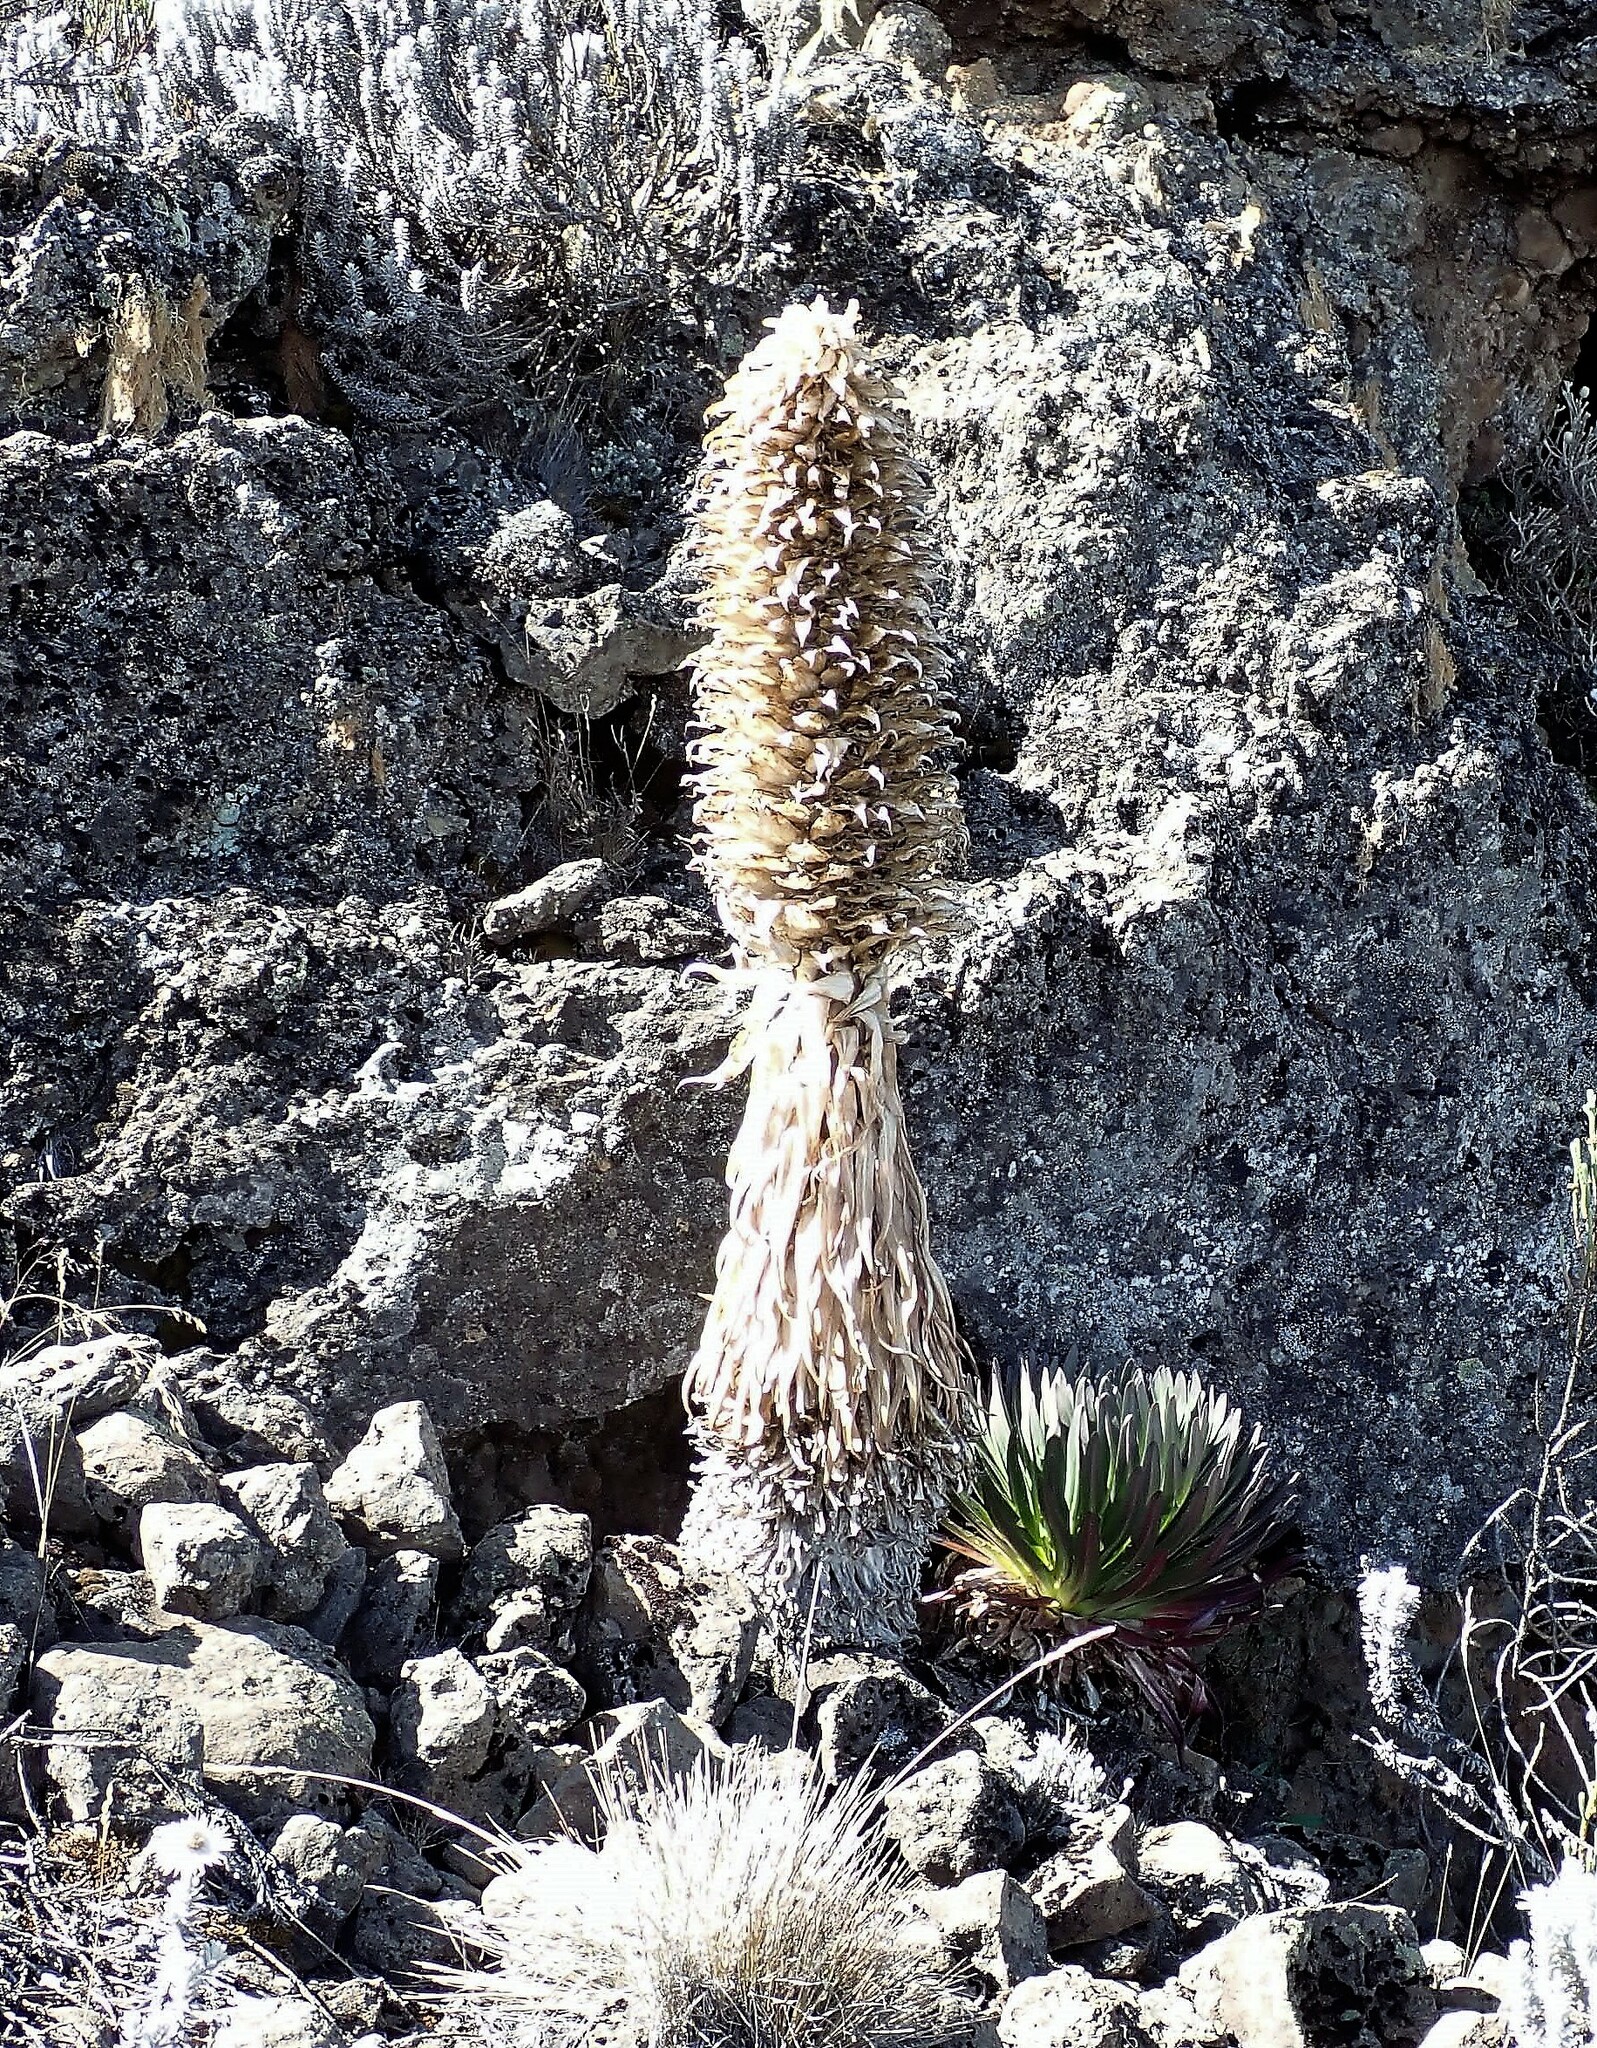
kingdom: Plantae
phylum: Tracheophyta
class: Magnoliopsida
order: Asterales
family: Campanulaceae
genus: Lobelia
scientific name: Lobelia deckenii
